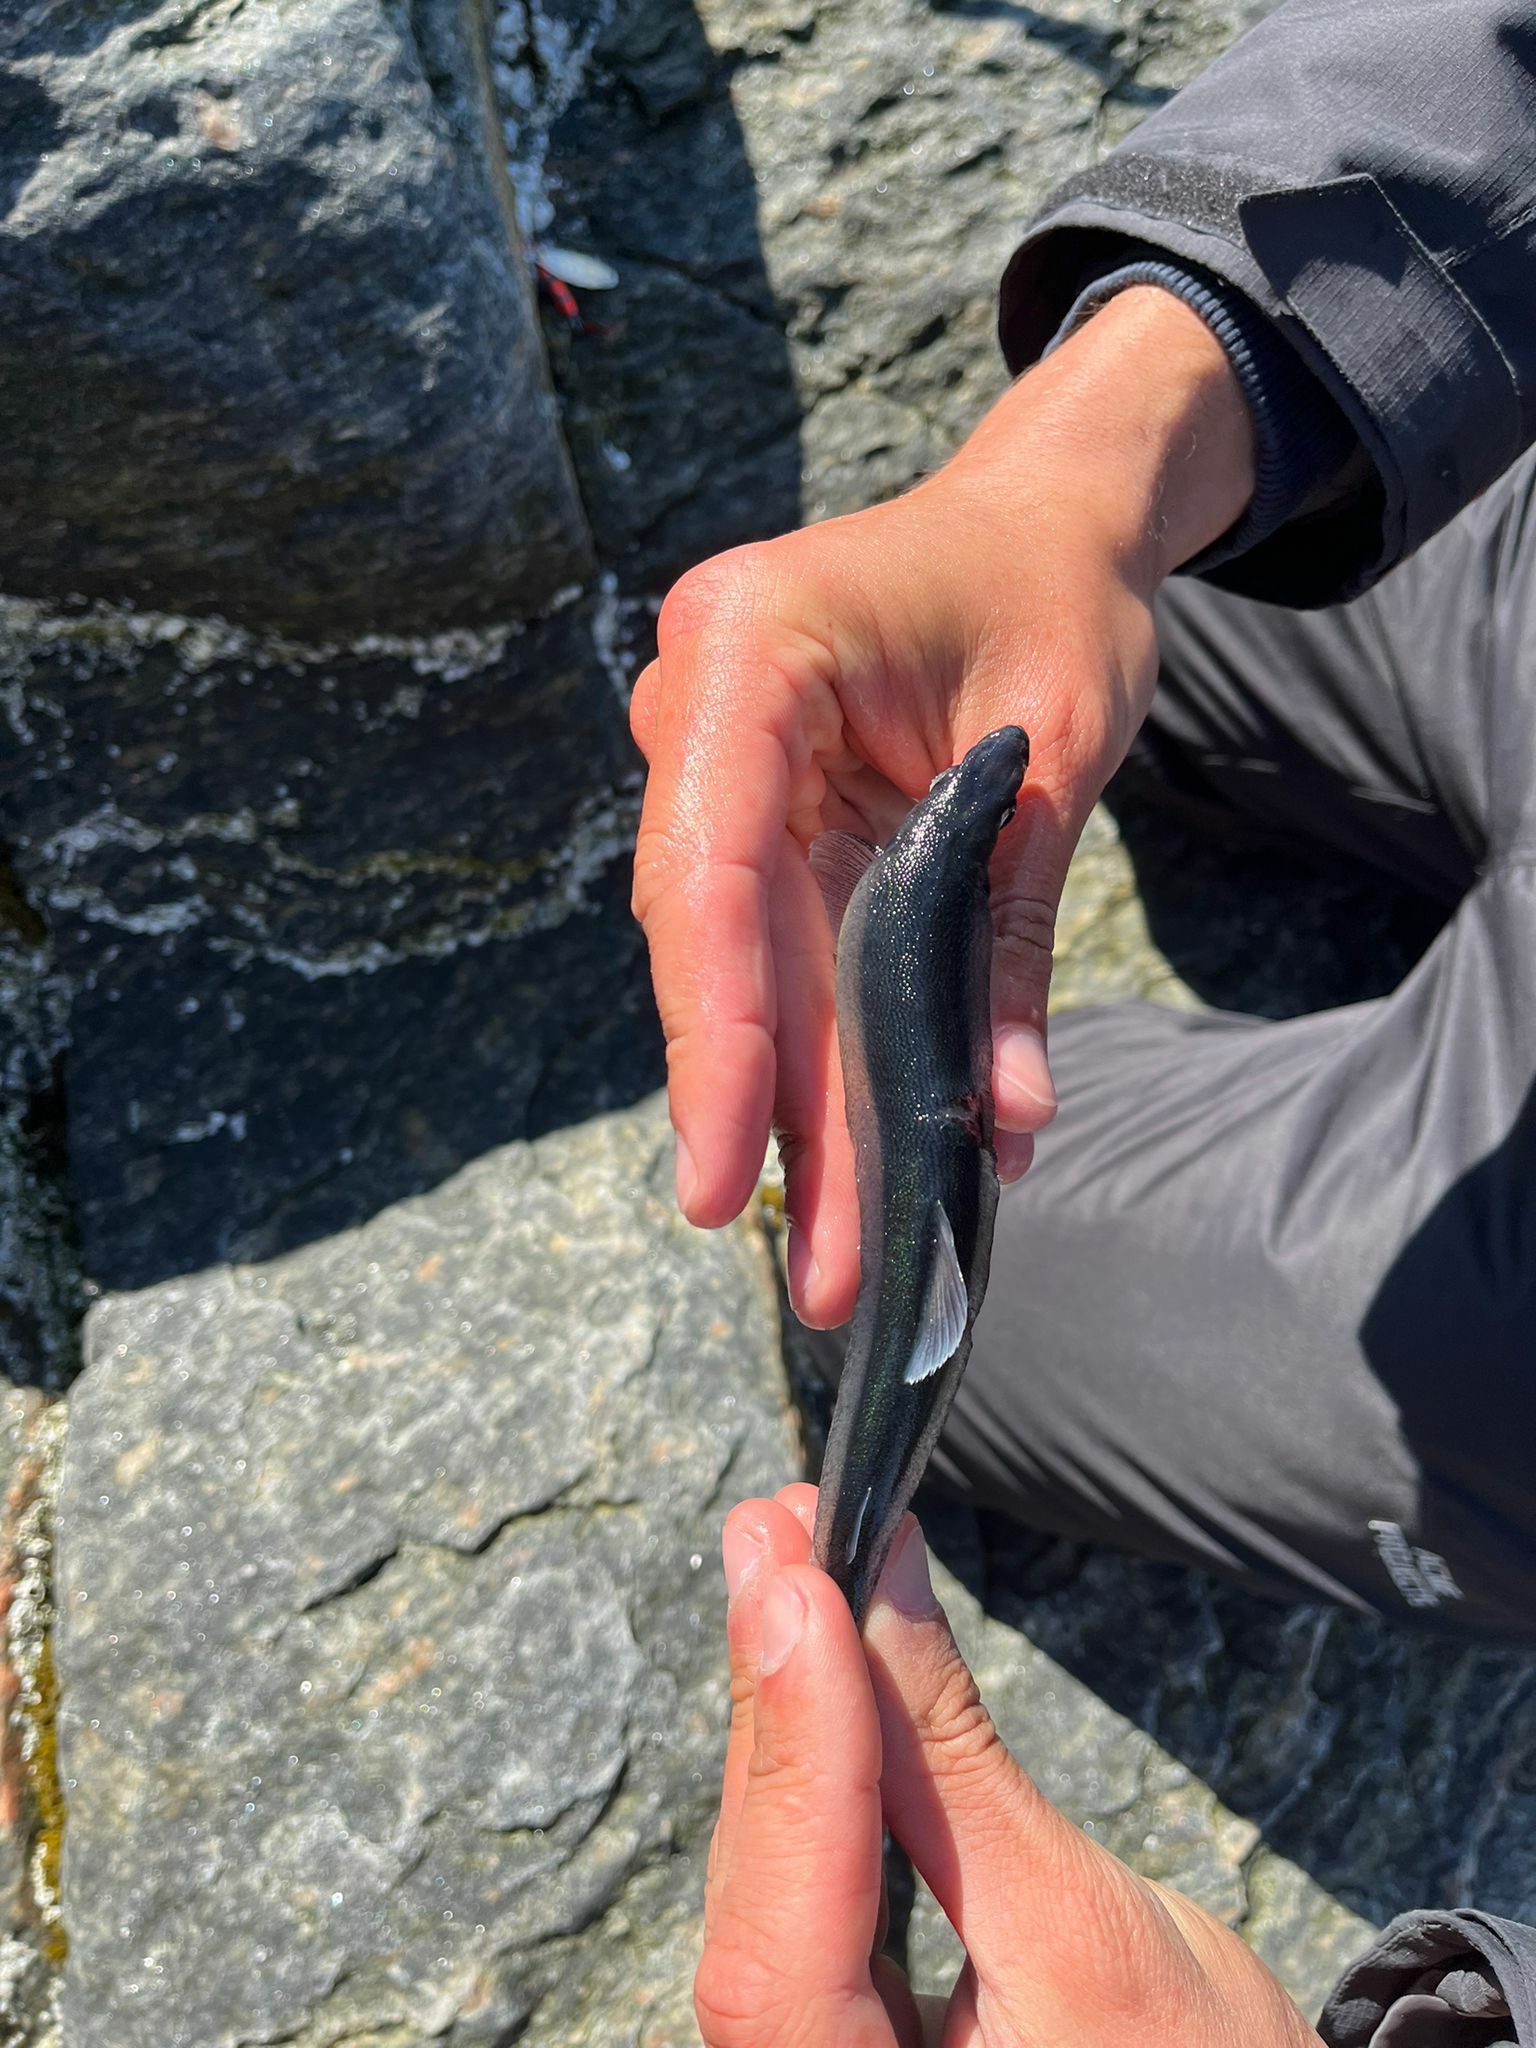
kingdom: Animalia
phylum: Chordata
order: Osmeriformes
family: Osmeridae
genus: Mallotus
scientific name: Mallotus villosus
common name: Capelin
